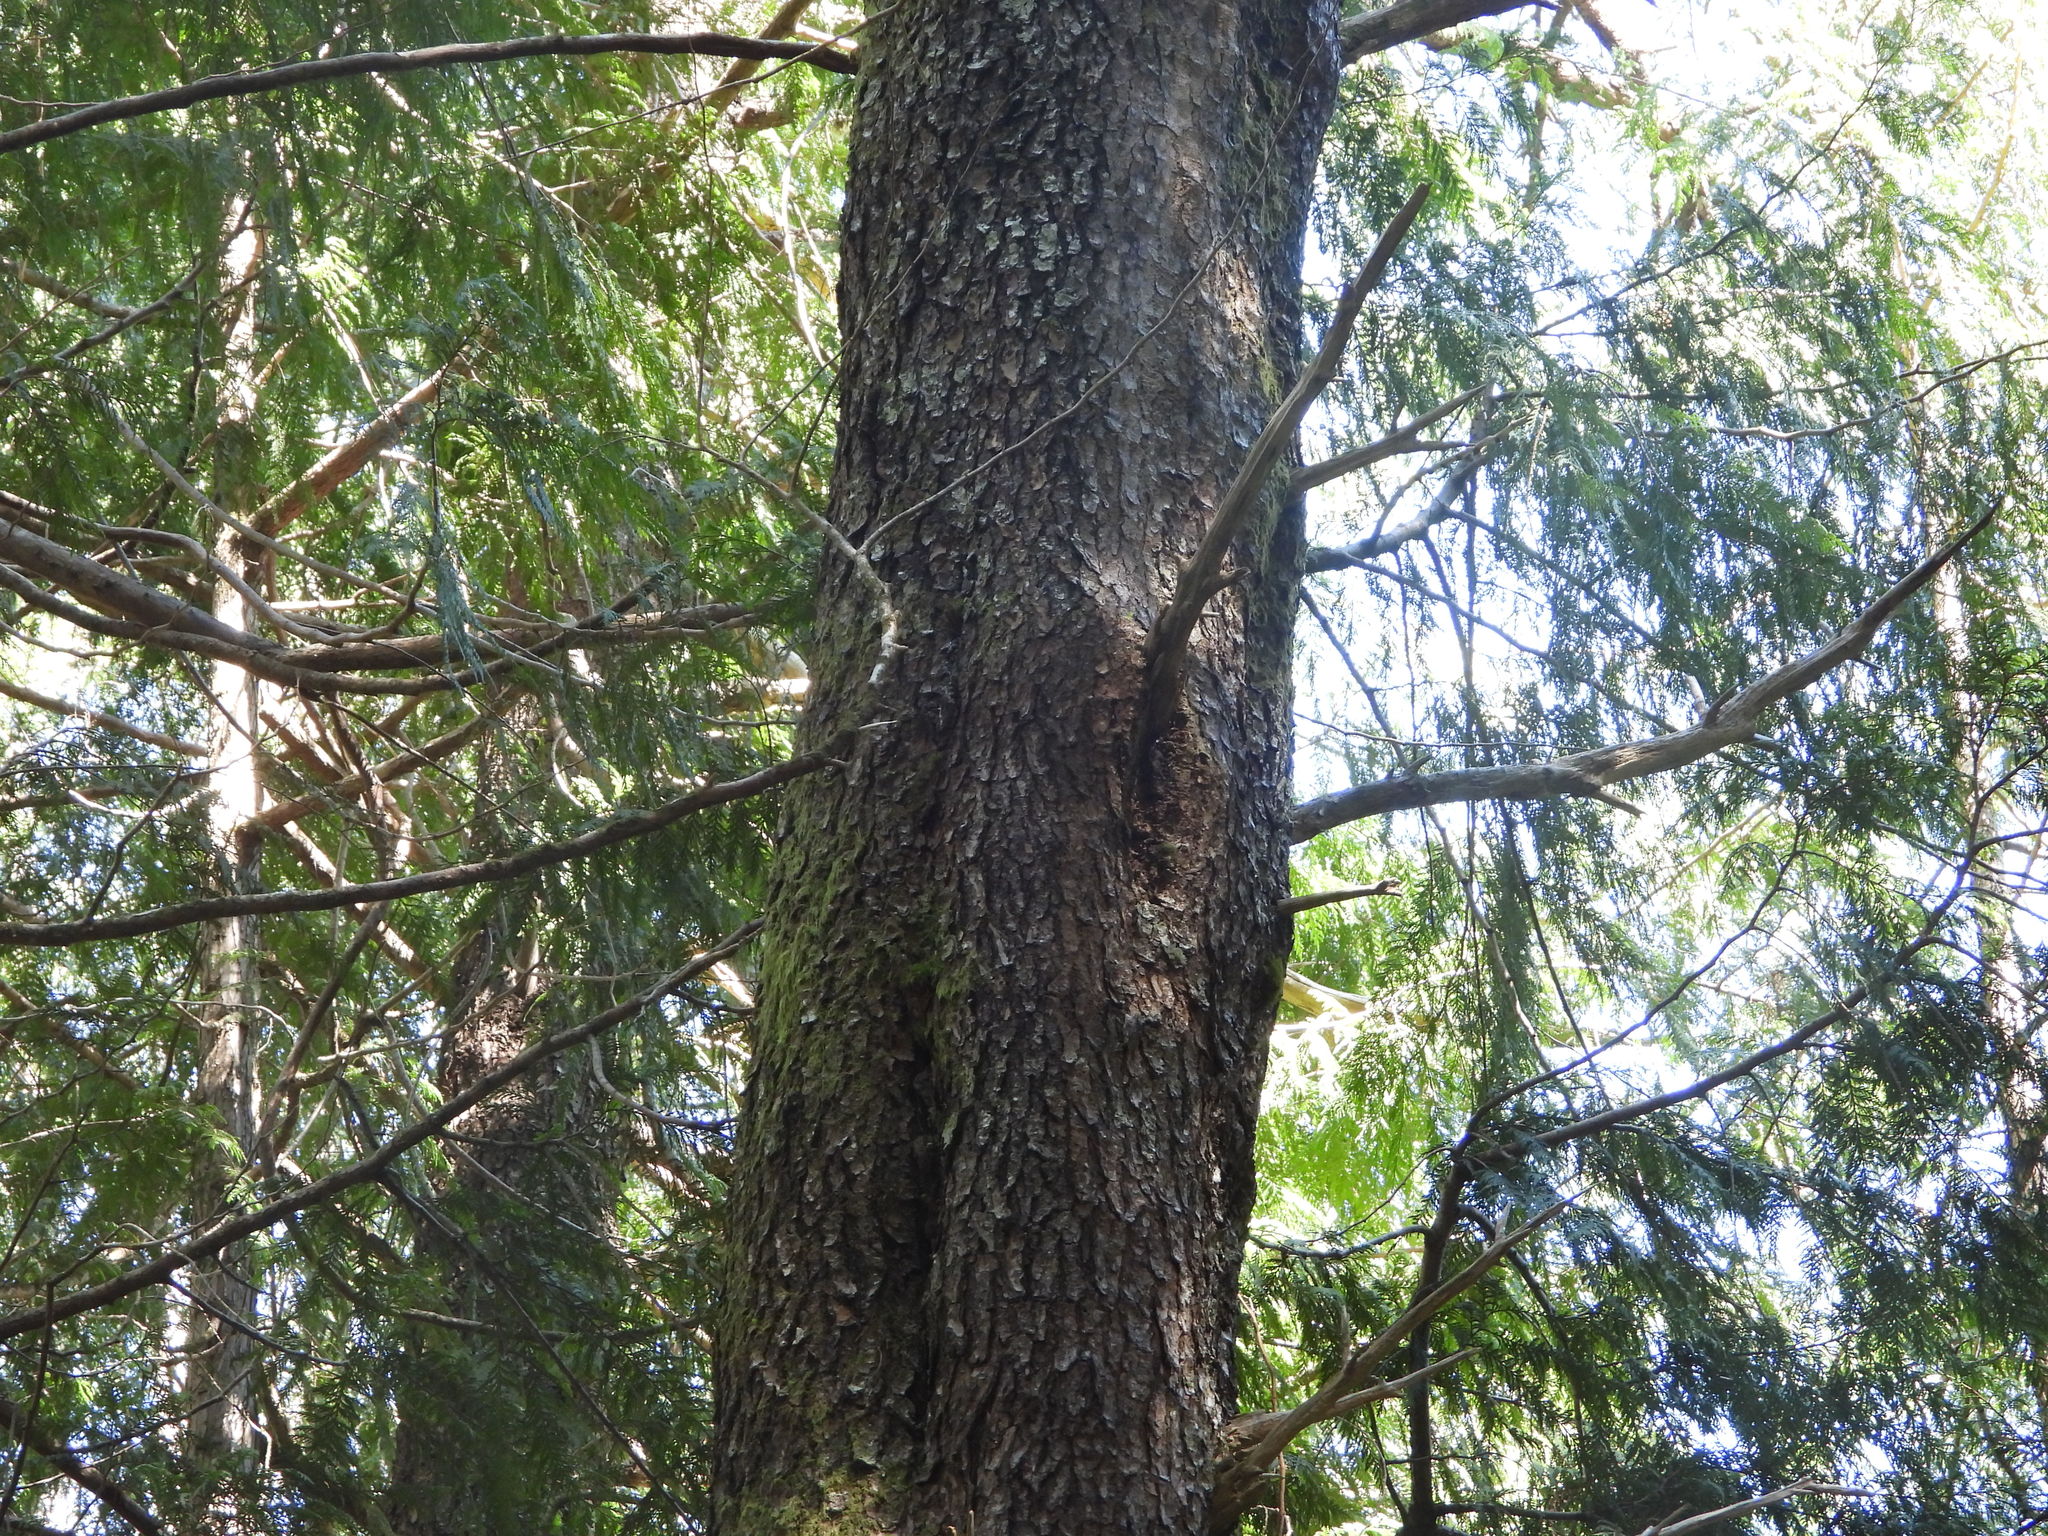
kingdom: Plantae
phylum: Tracheophyta
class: Pinopsida
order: Pinales
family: Pinaceae
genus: Pinus
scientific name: Pinus contorta
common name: Lodgepole pine
